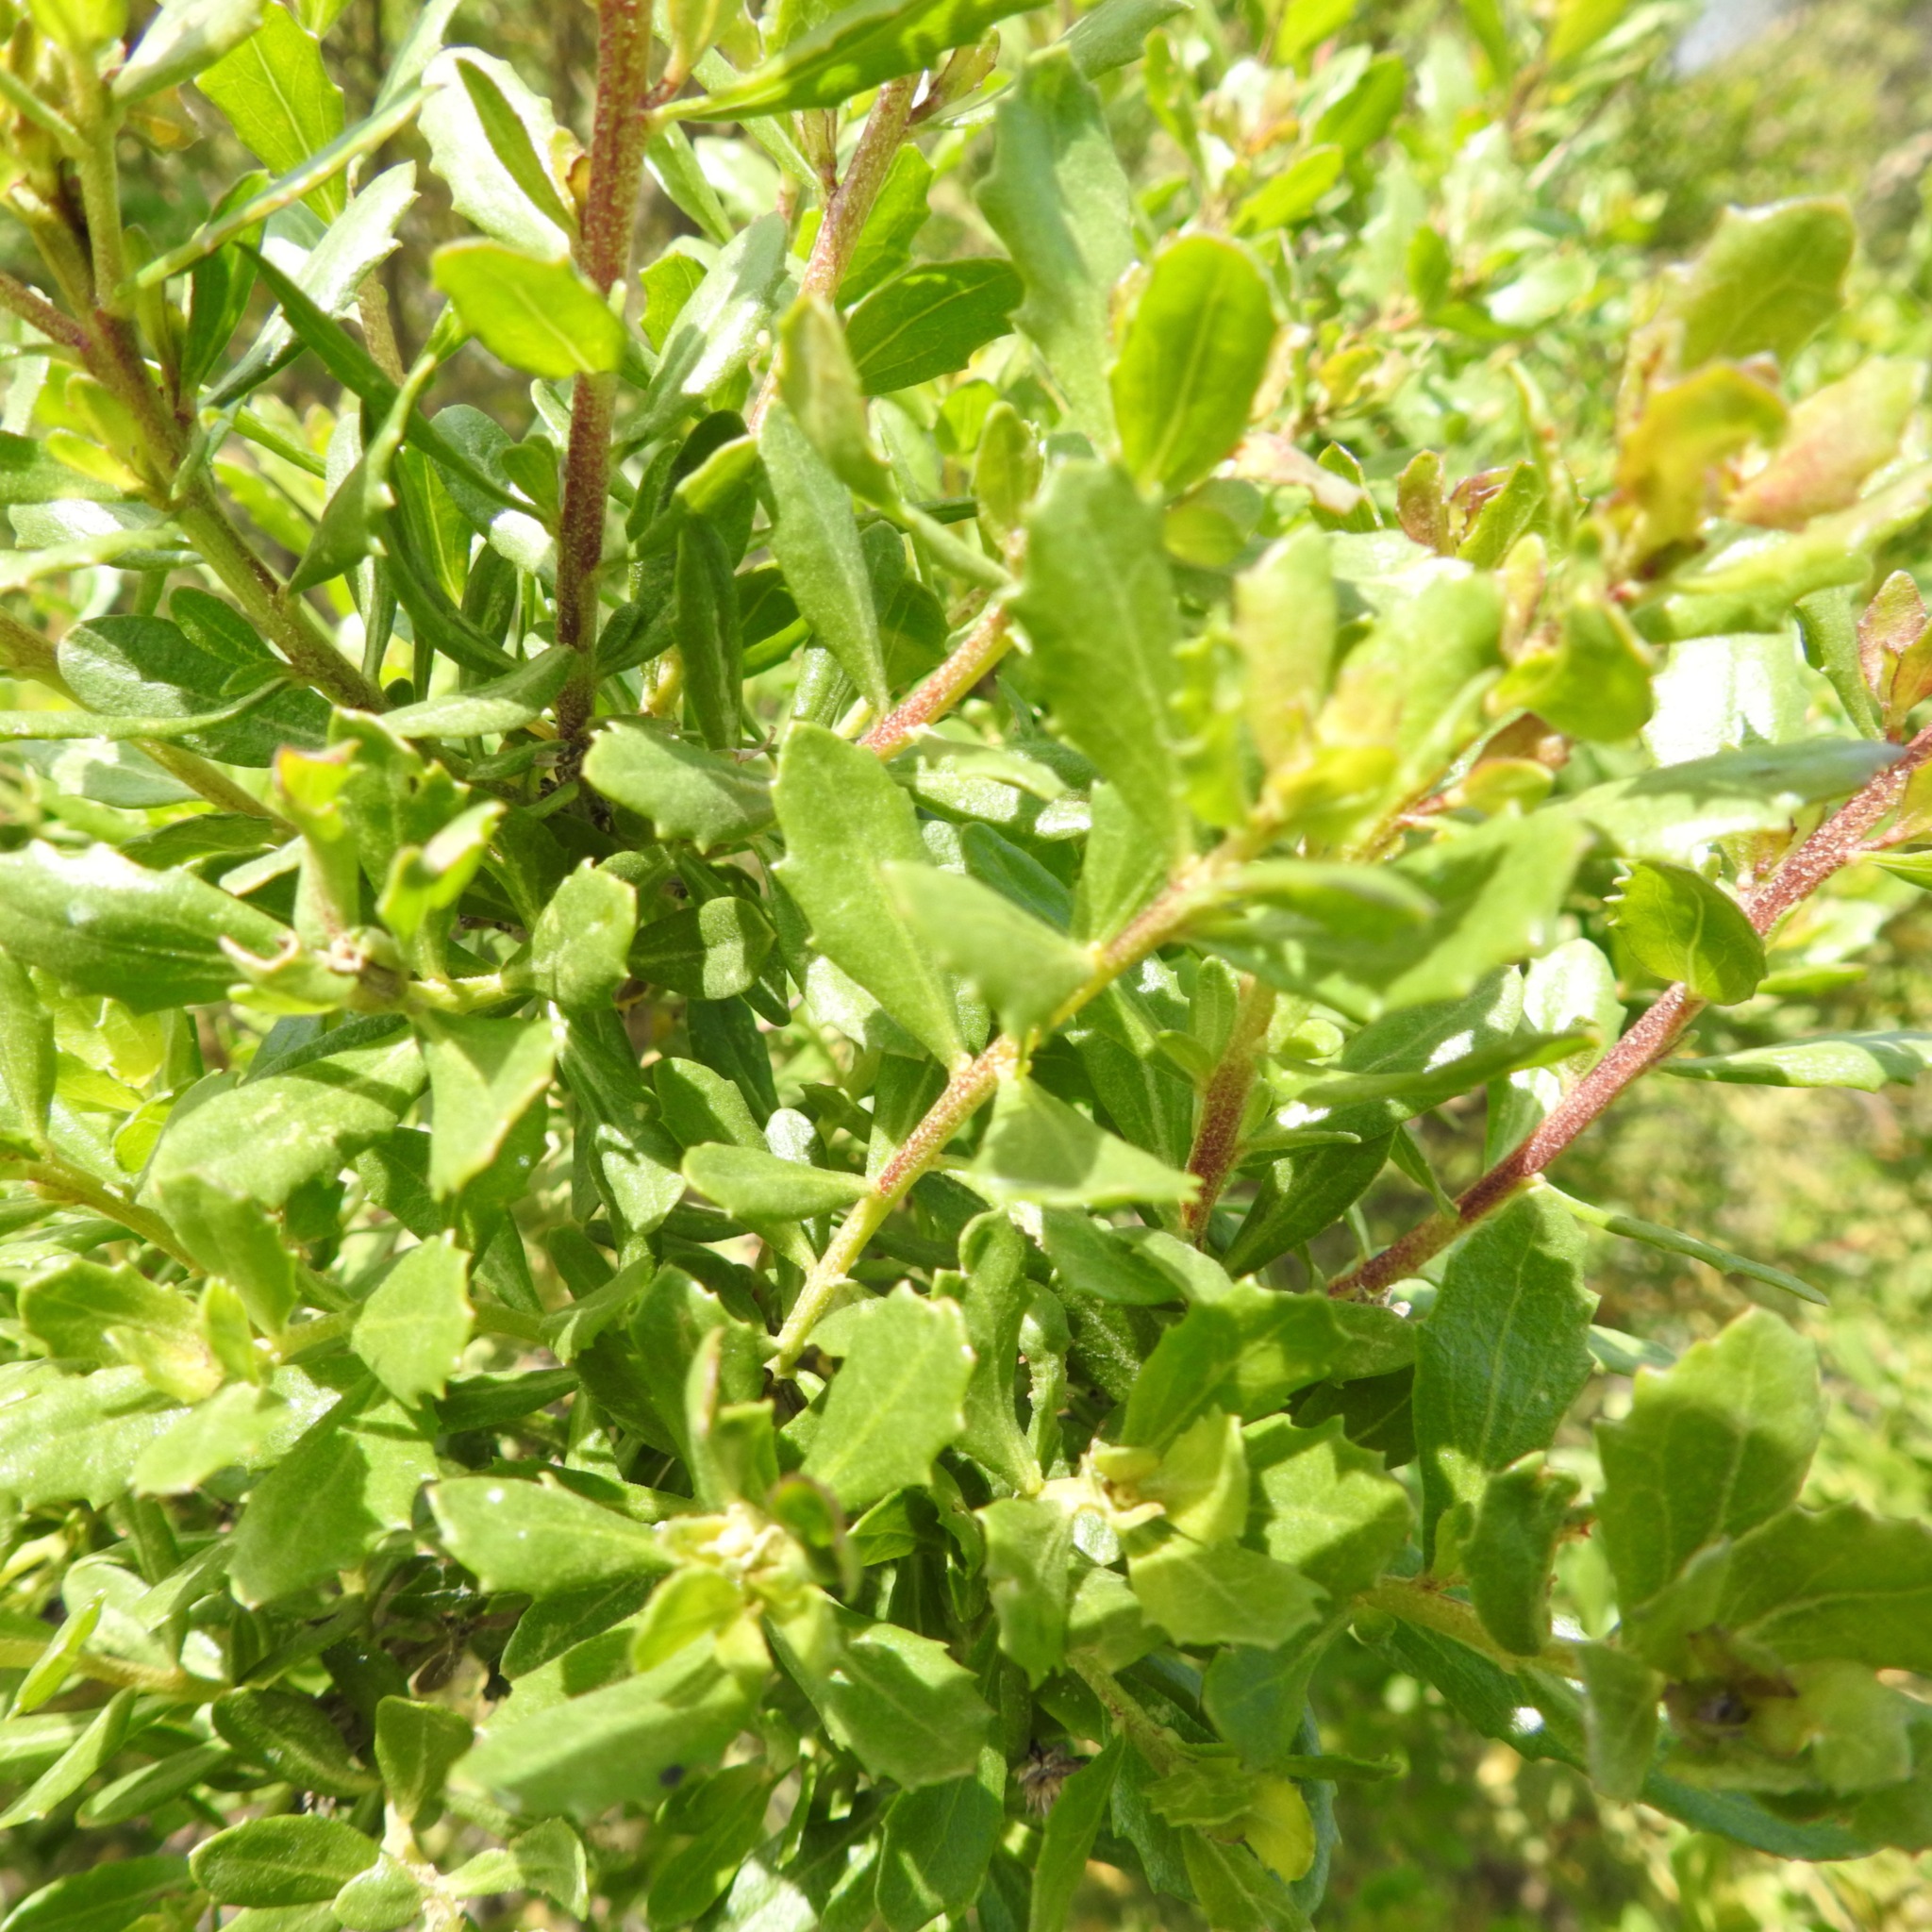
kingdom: Plantae
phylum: Tracheophyta
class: Magnoliopsida
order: Asterales
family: Asteraceae
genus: Baccharis
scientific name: Baccharis pilularis
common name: Coyotebrush
